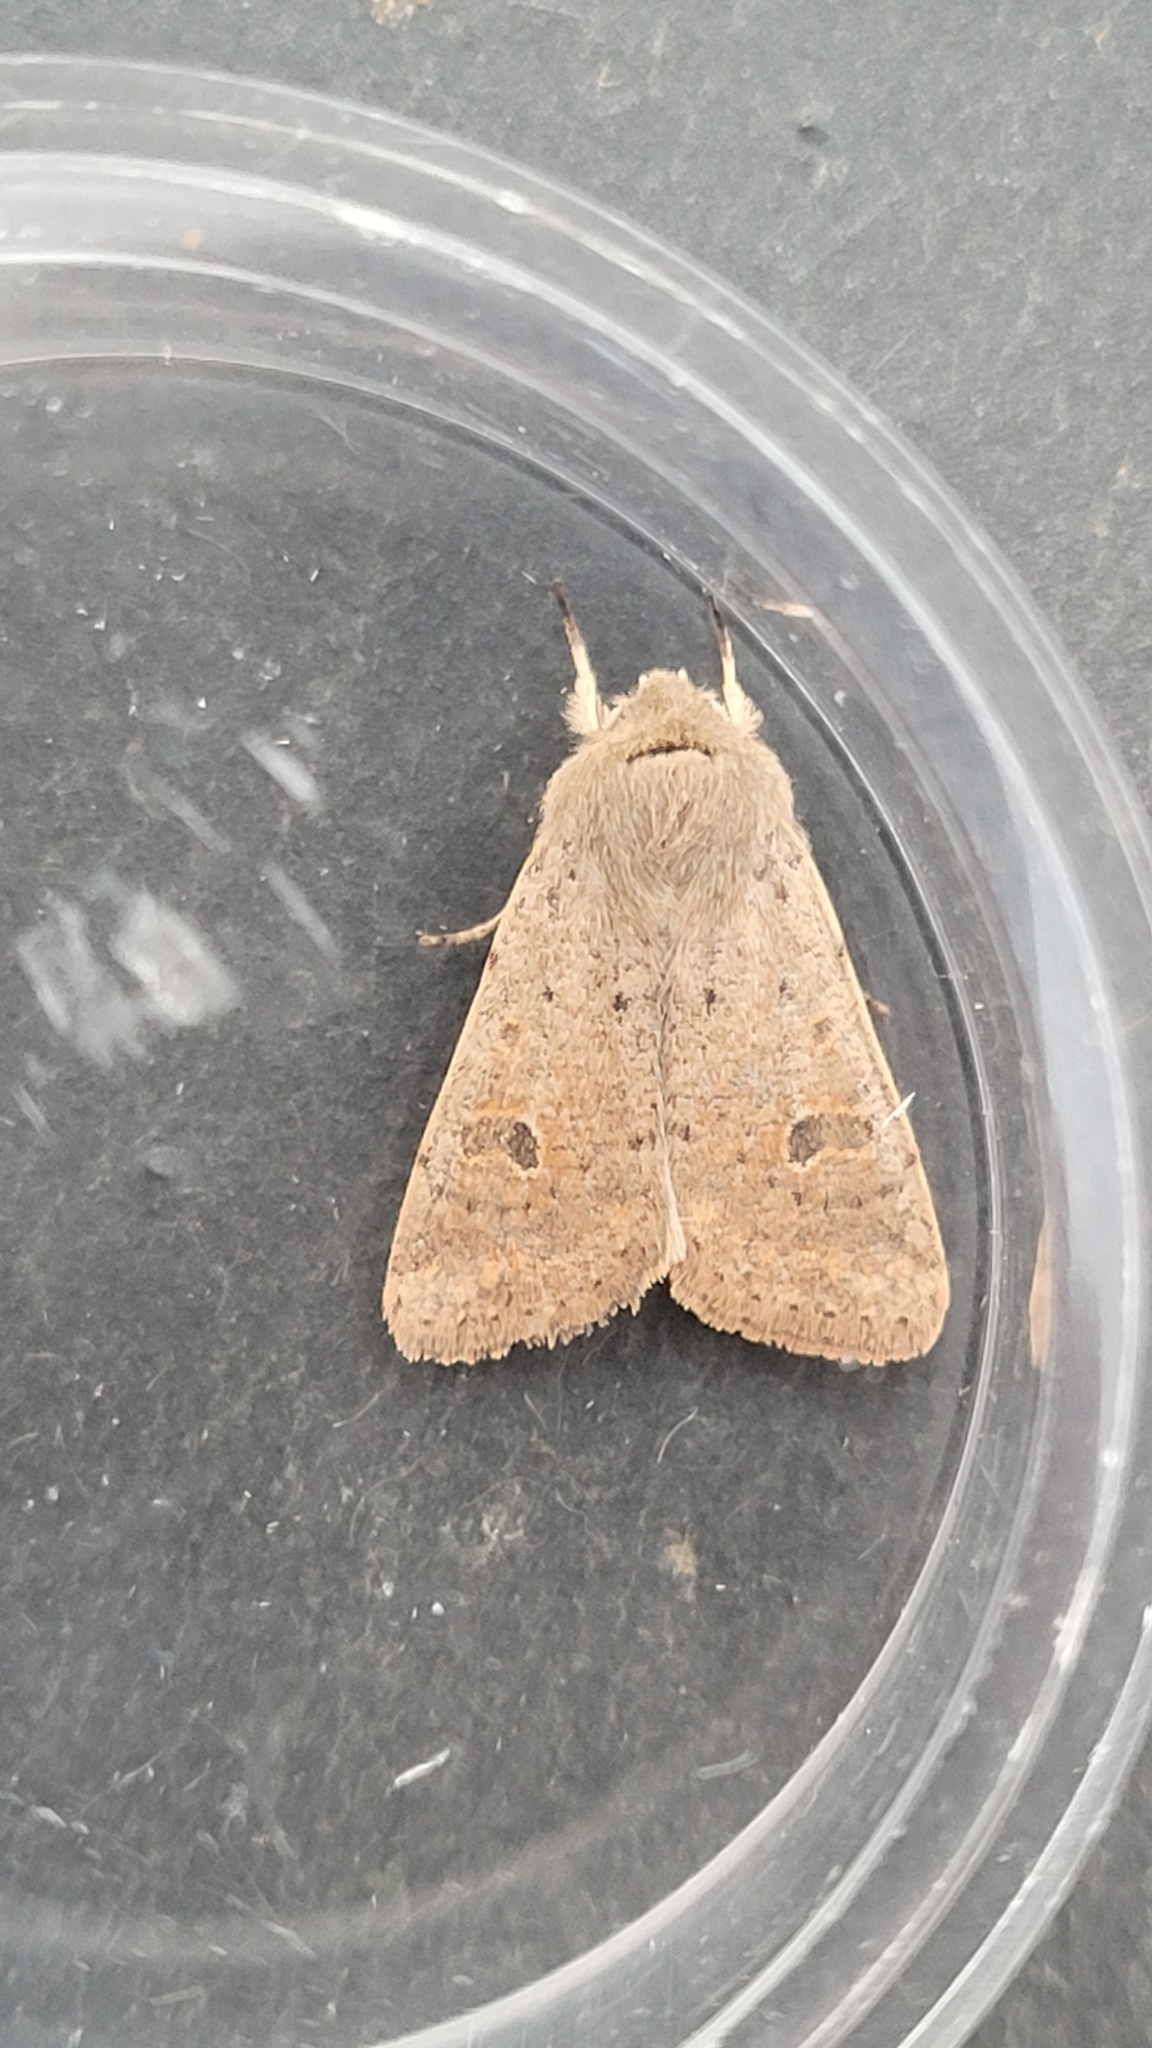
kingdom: Animalia
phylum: Arthropoda
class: Insecta
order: Lepidoptera
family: Noctuidae
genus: Orthosia
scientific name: Orthosia cruda
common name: Small quaker
